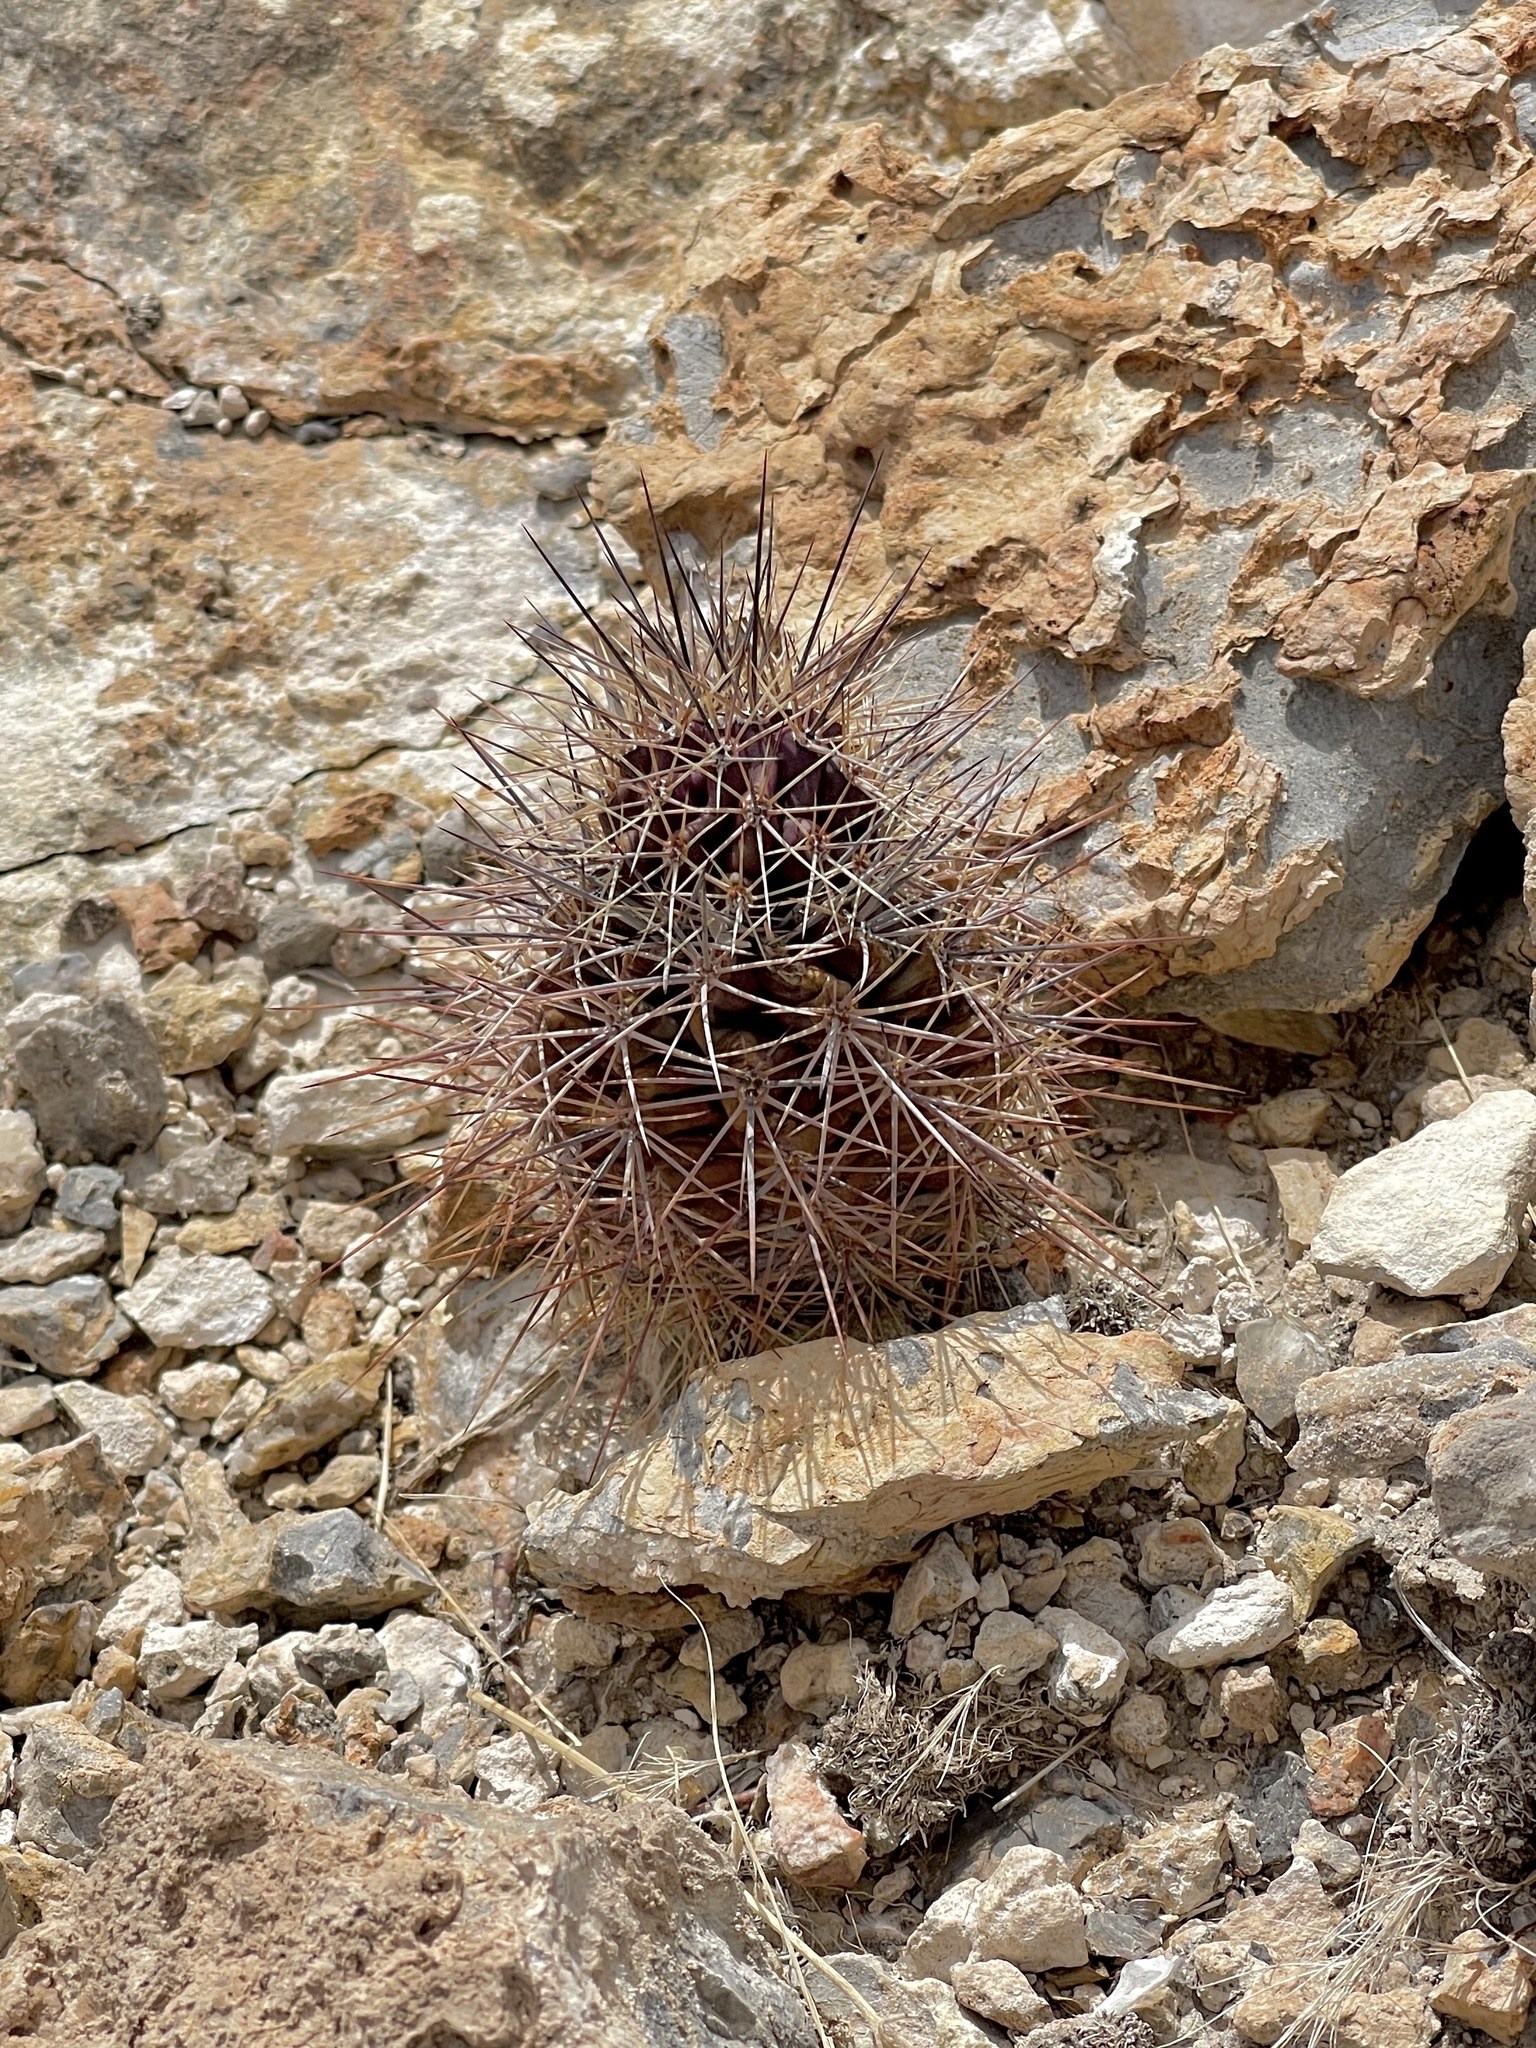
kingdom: Plantae
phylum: Tracheophyta
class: Magnoliopsida
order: Caryophyllales
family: Cactaceae
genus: Echinocereus
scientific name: Echinocereus coccineus
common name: Scarlet hedgehog cactus
